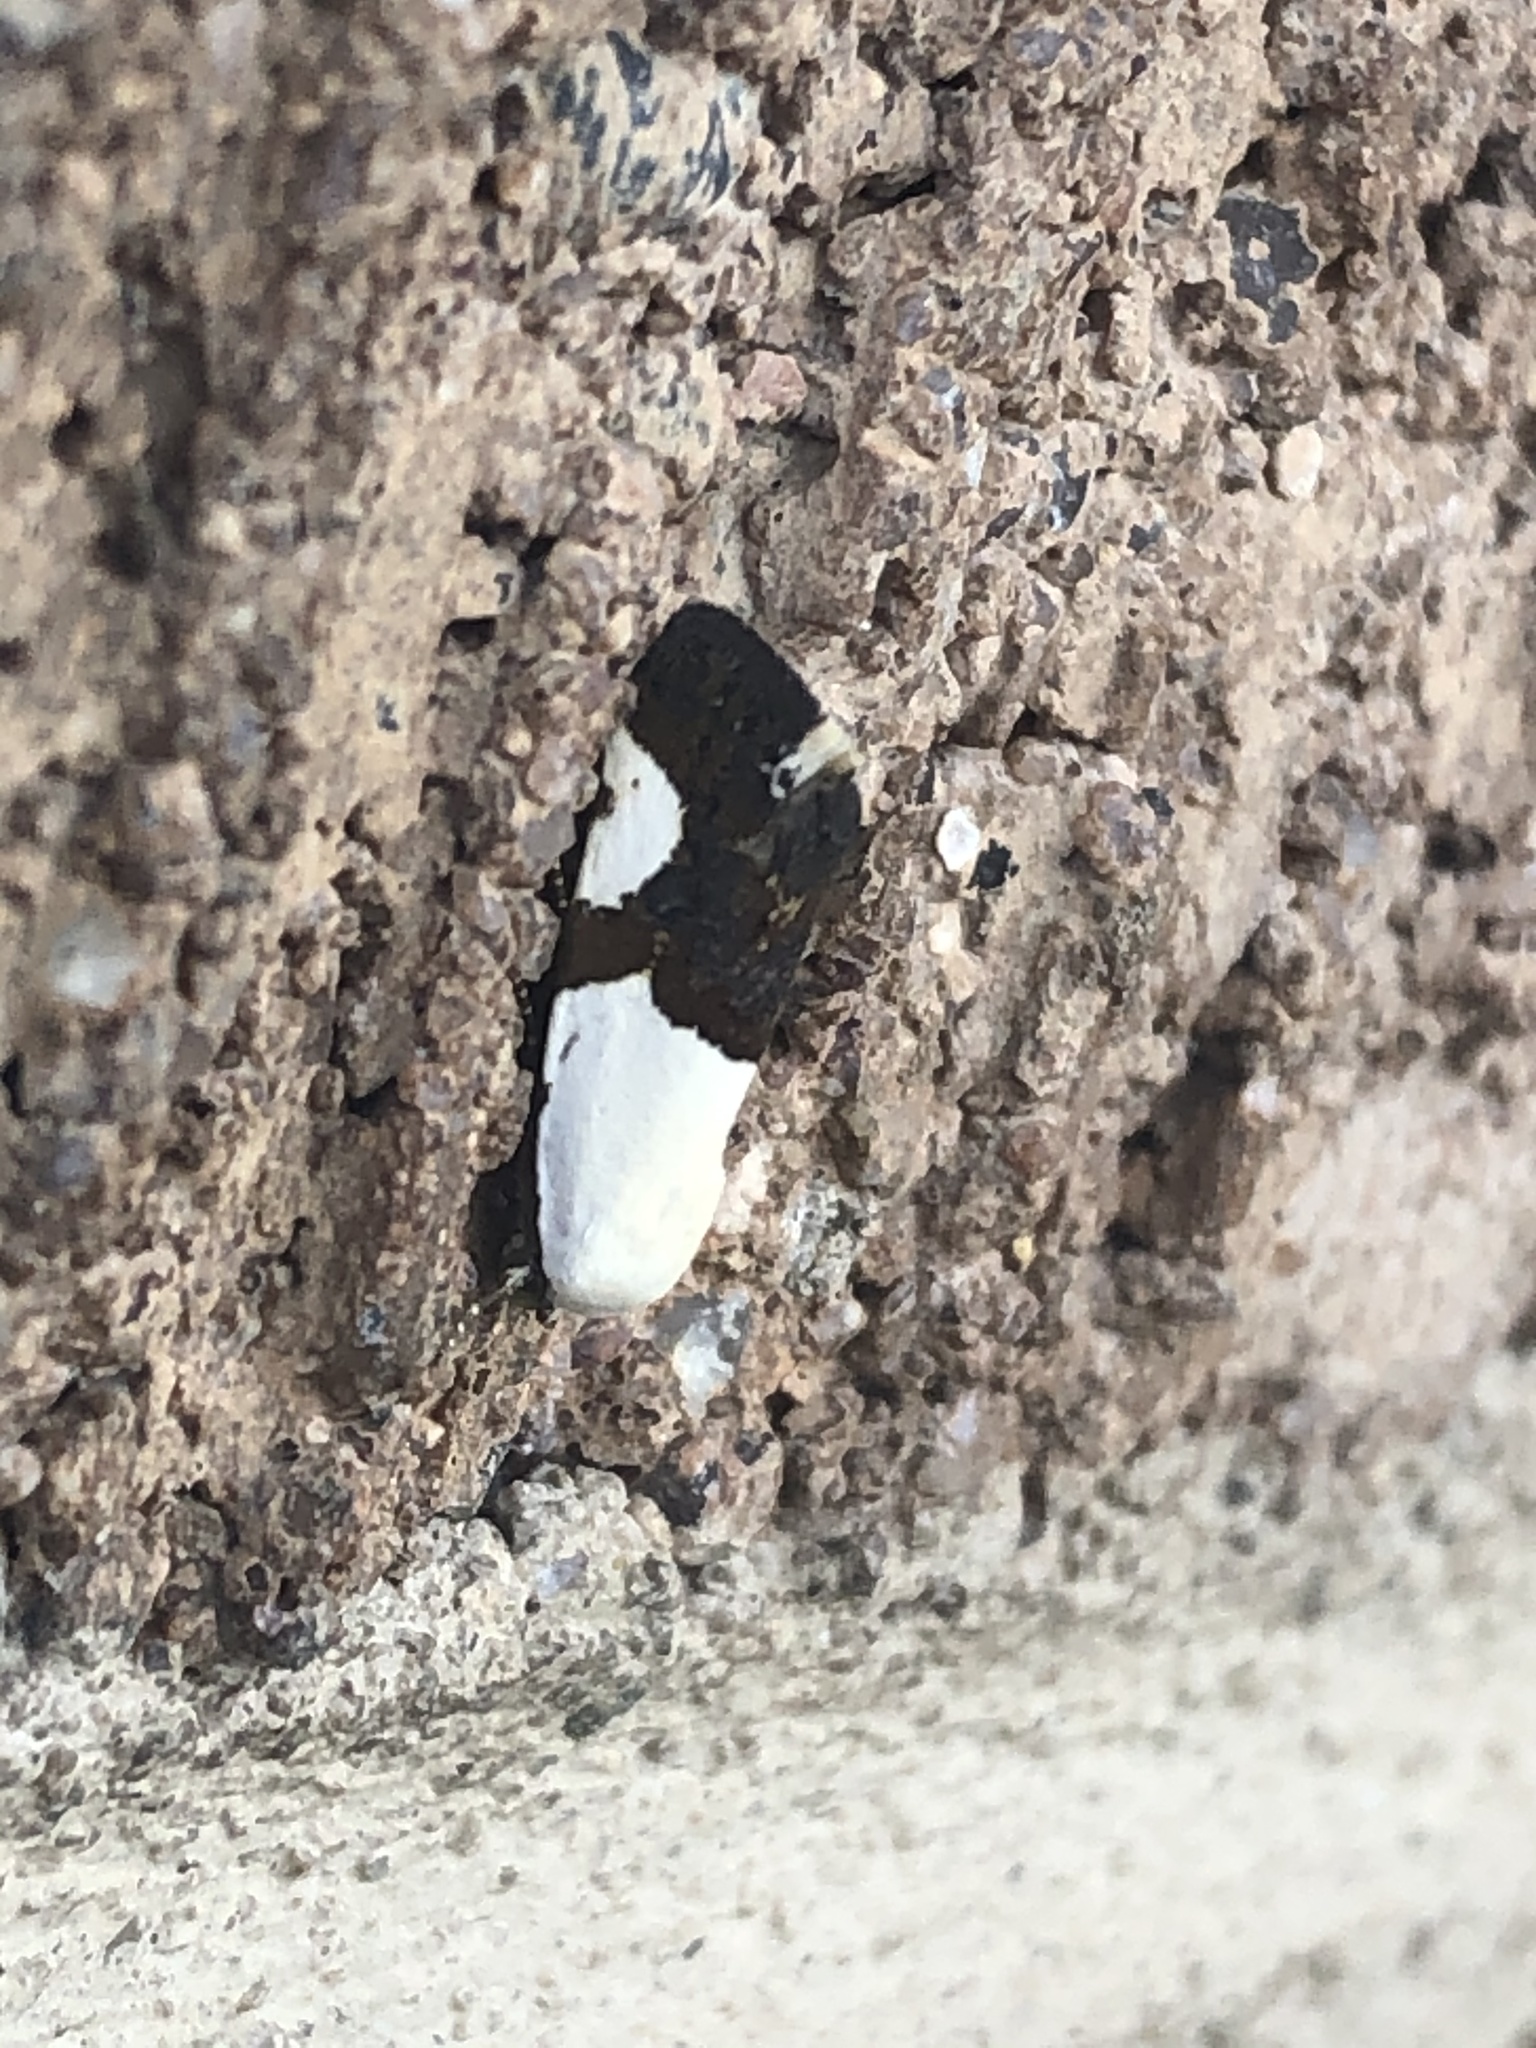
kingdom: Animalia
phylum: Arthropoda
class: Insecta
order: Lepidoptera
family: Noctuidae
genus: Acontia
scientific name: Acontia cuta
